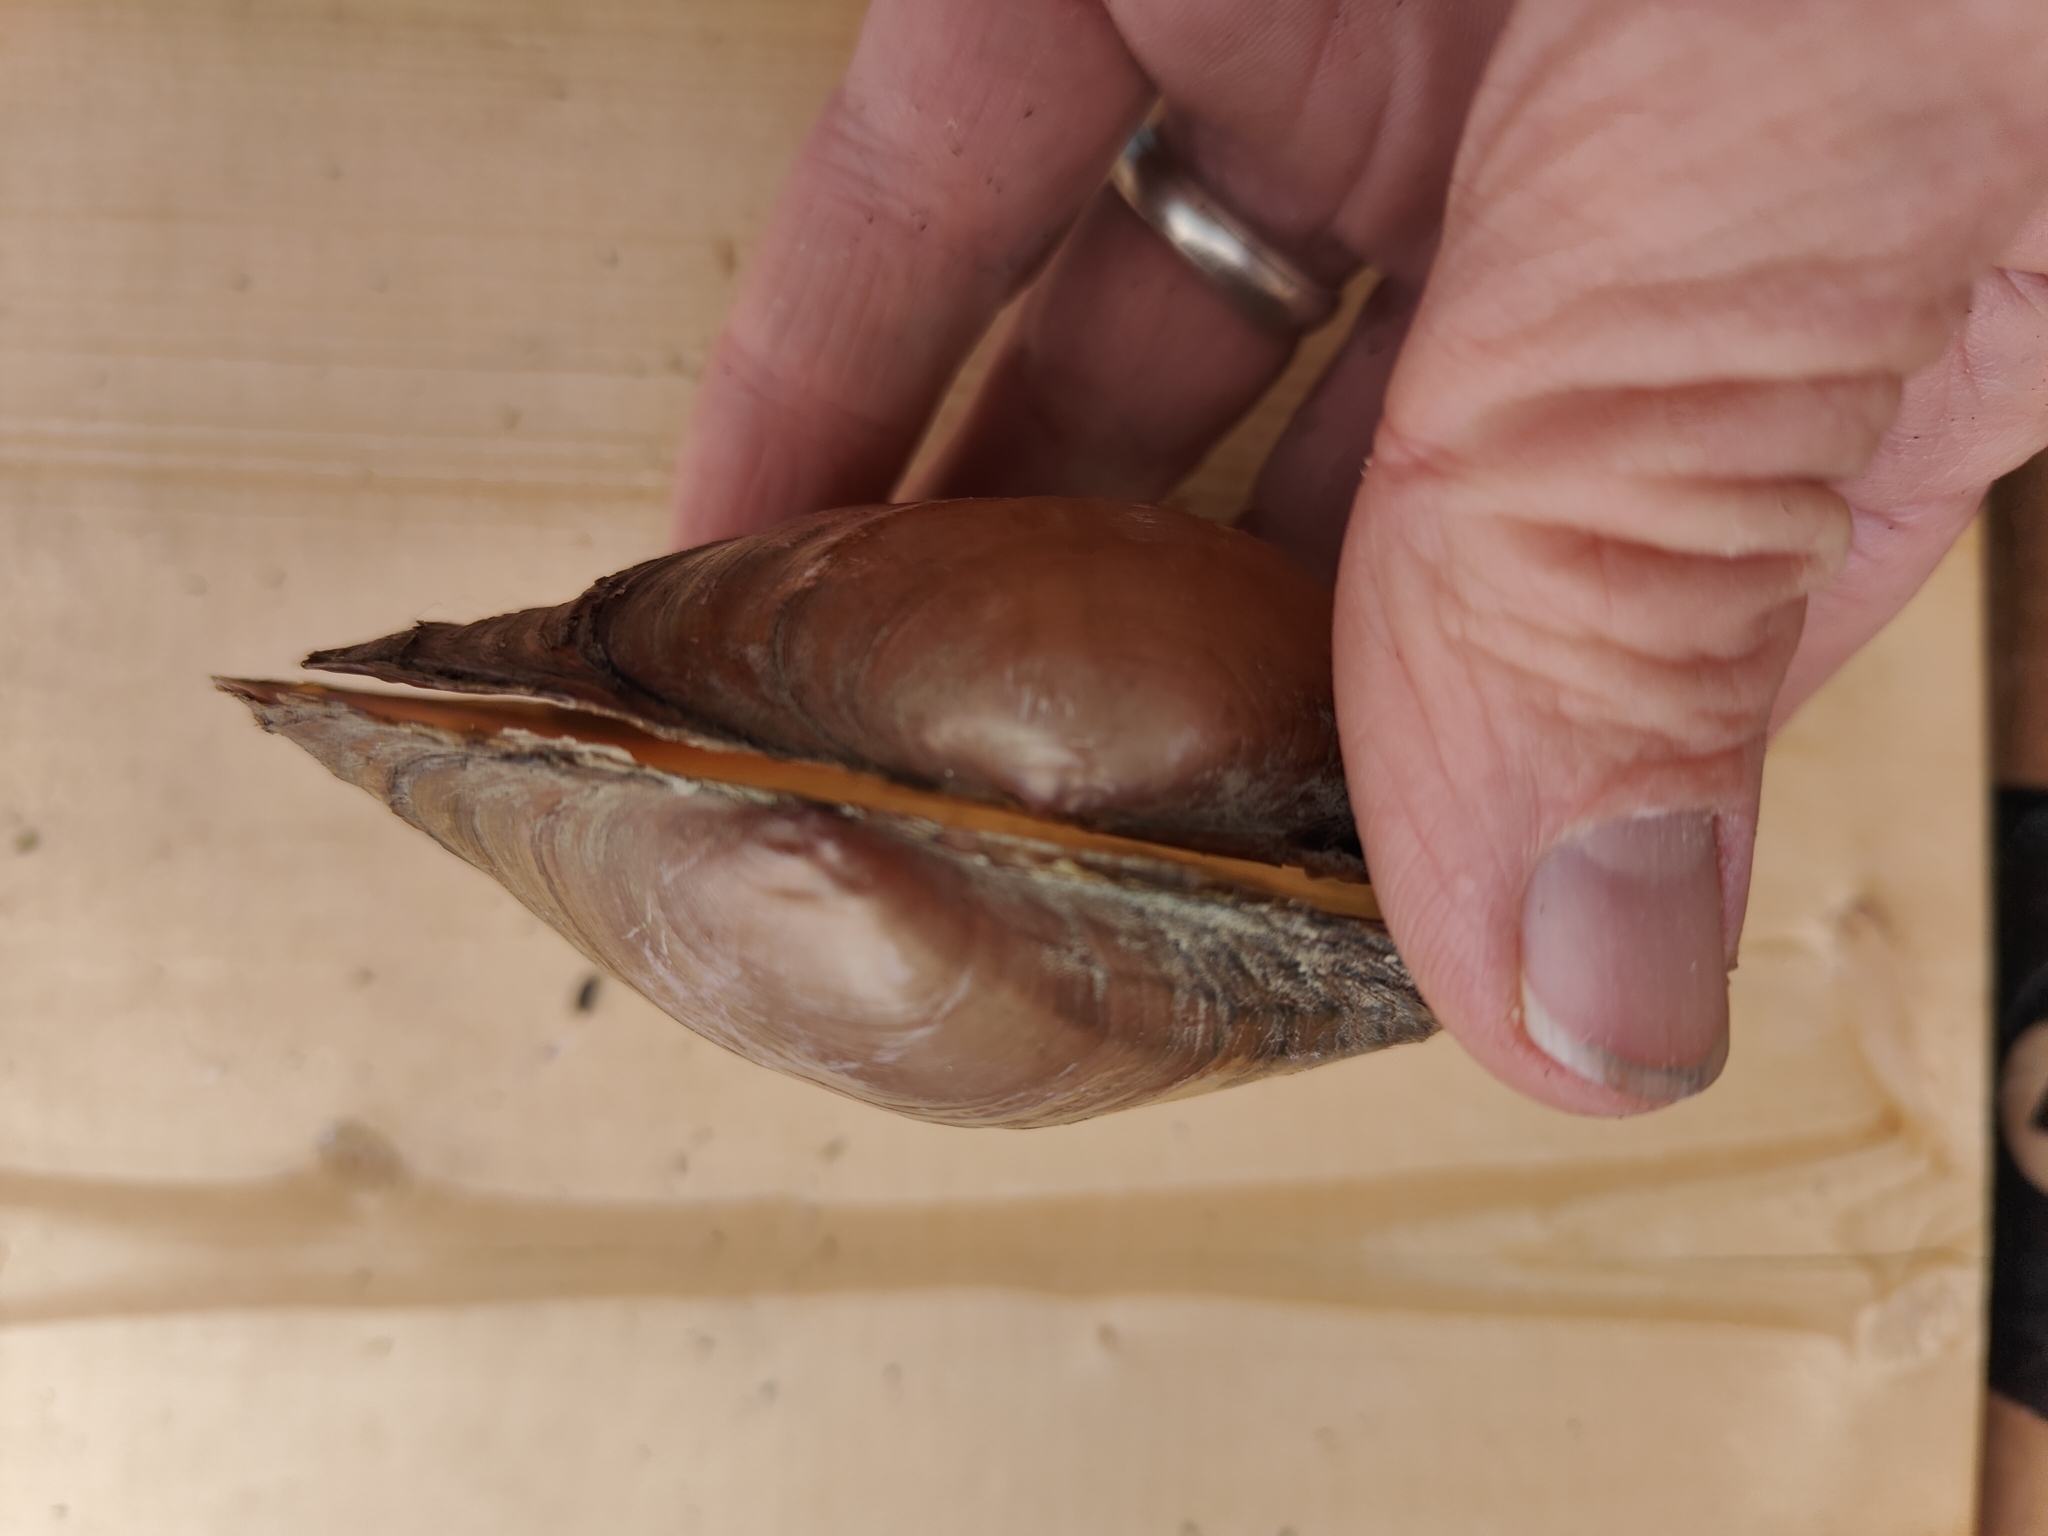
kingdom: Animalia
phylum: Mollusca
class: Bivalvia
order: Unionida
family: Unionidae
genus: Pyganodon
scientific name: Pyganodon grandis
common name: Giant floater
